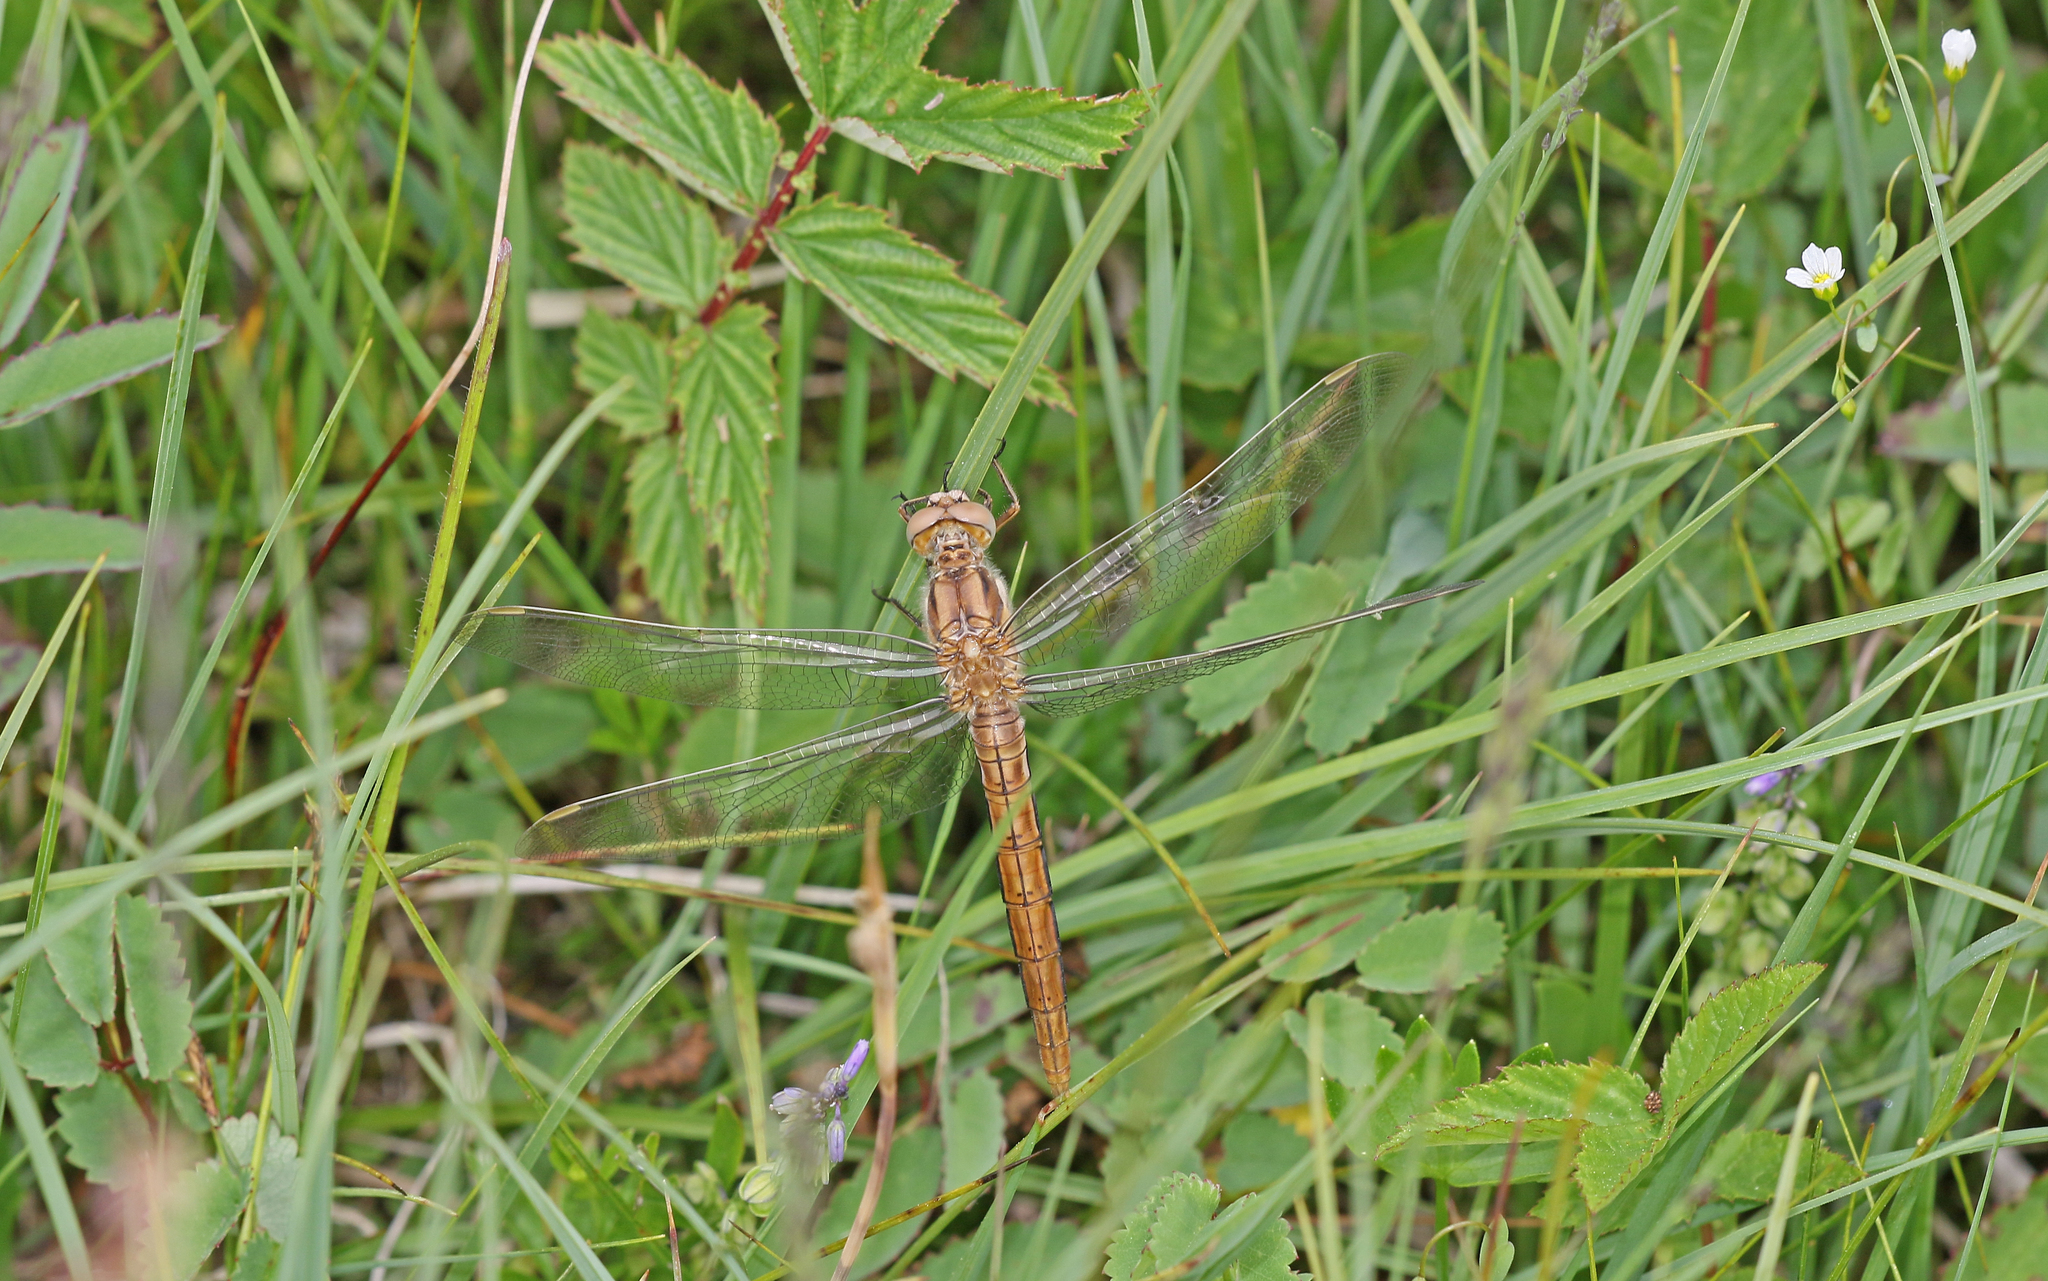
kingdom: Animalia
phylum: Arthropoda
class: Insecta
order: Odonata
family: Libellulidae
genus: Orthetrum
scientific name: Orthetrum brunneum
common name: Southern skimmer
